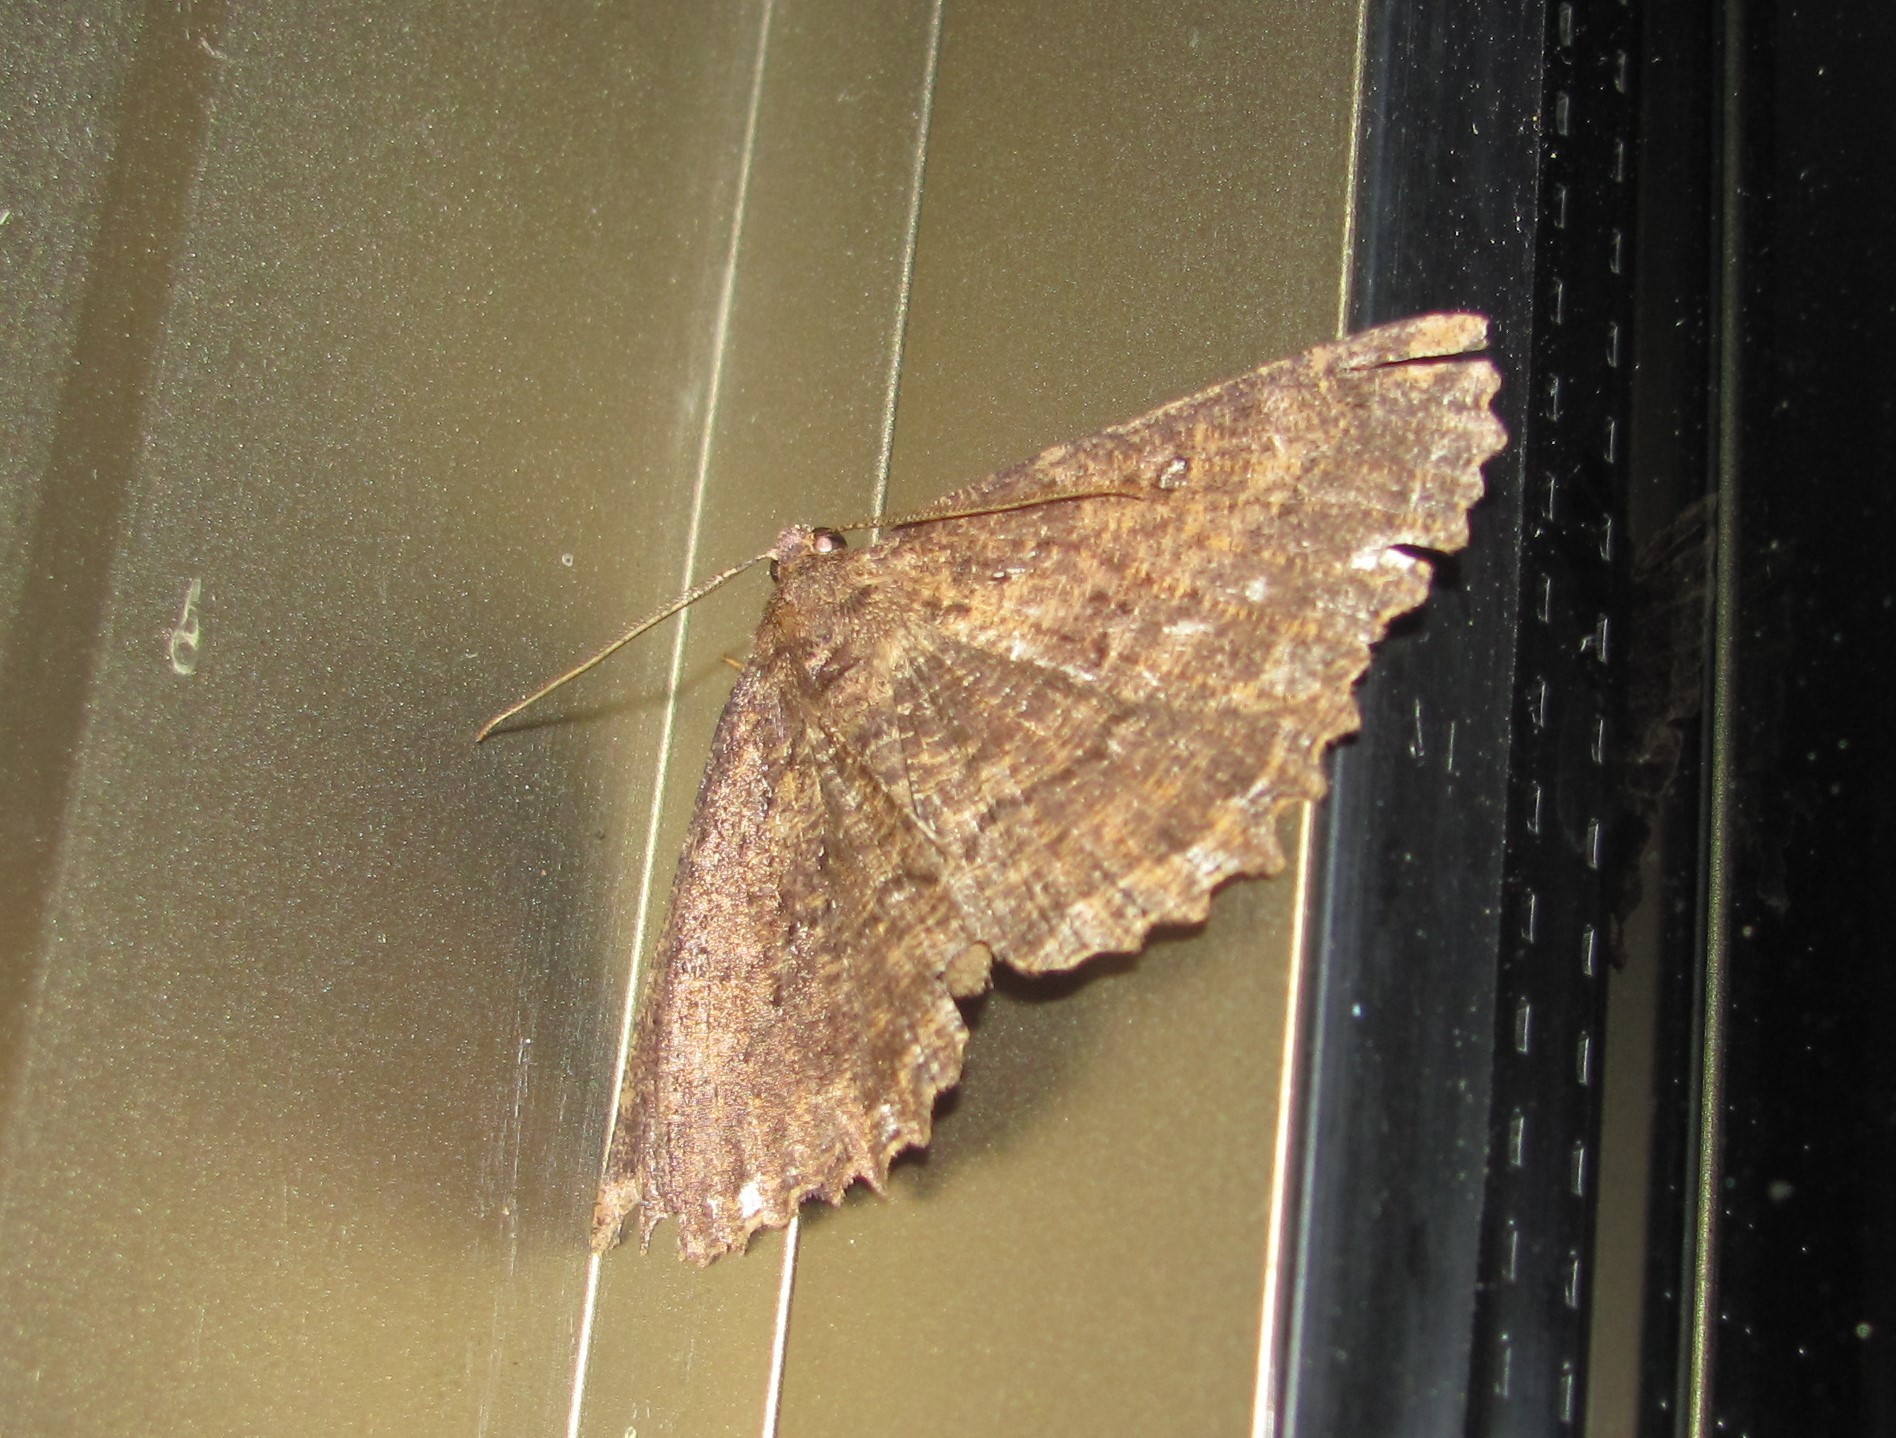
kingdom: Animalia
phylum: Arthropoda
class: Insecta
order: Lepidoptera
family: Geometridae
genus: Gellonia
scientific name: Gellonia dejectaria
